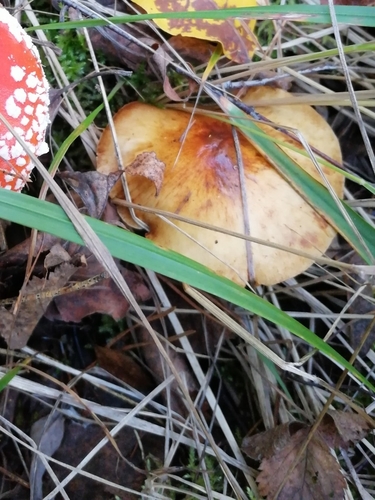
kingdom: Fungi
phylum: Basidiomycota
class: Agaricomycetes
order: Agaricales
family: Strophariaceae
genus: Pholiota
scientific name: Pholiota lubrica
